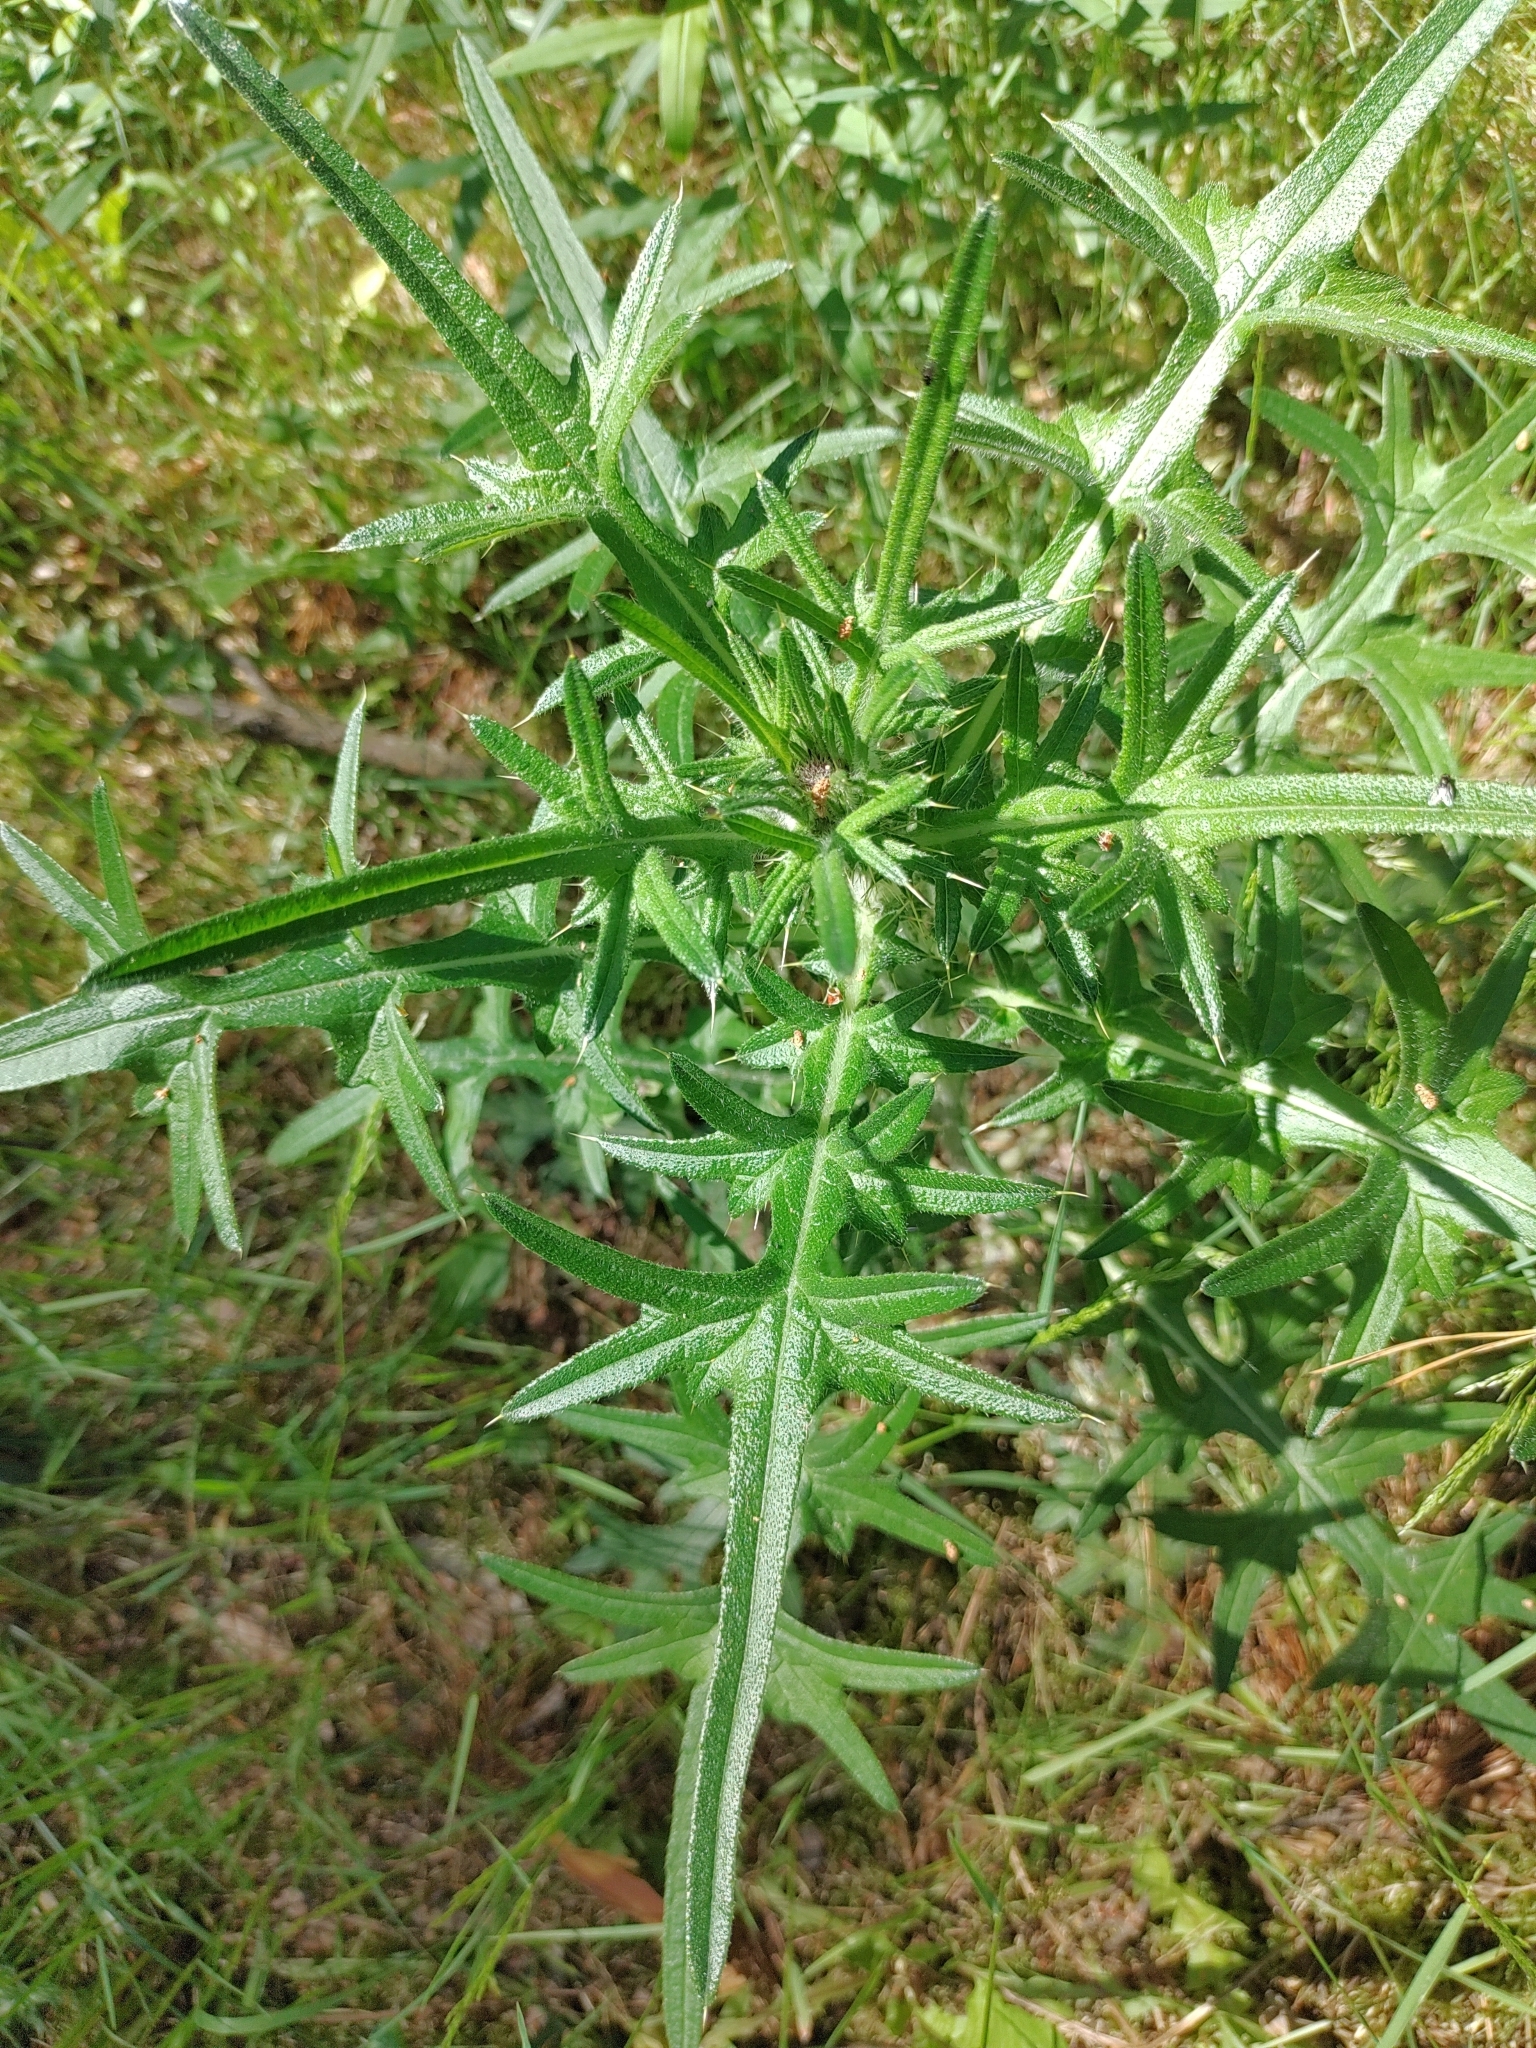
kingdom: Plantae
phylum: Tracheophyta
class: Magnoliopsida
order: Asterales
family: Asteraceae
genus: Cirsium
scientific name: Cirsium vulgare
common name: Bull thistle
